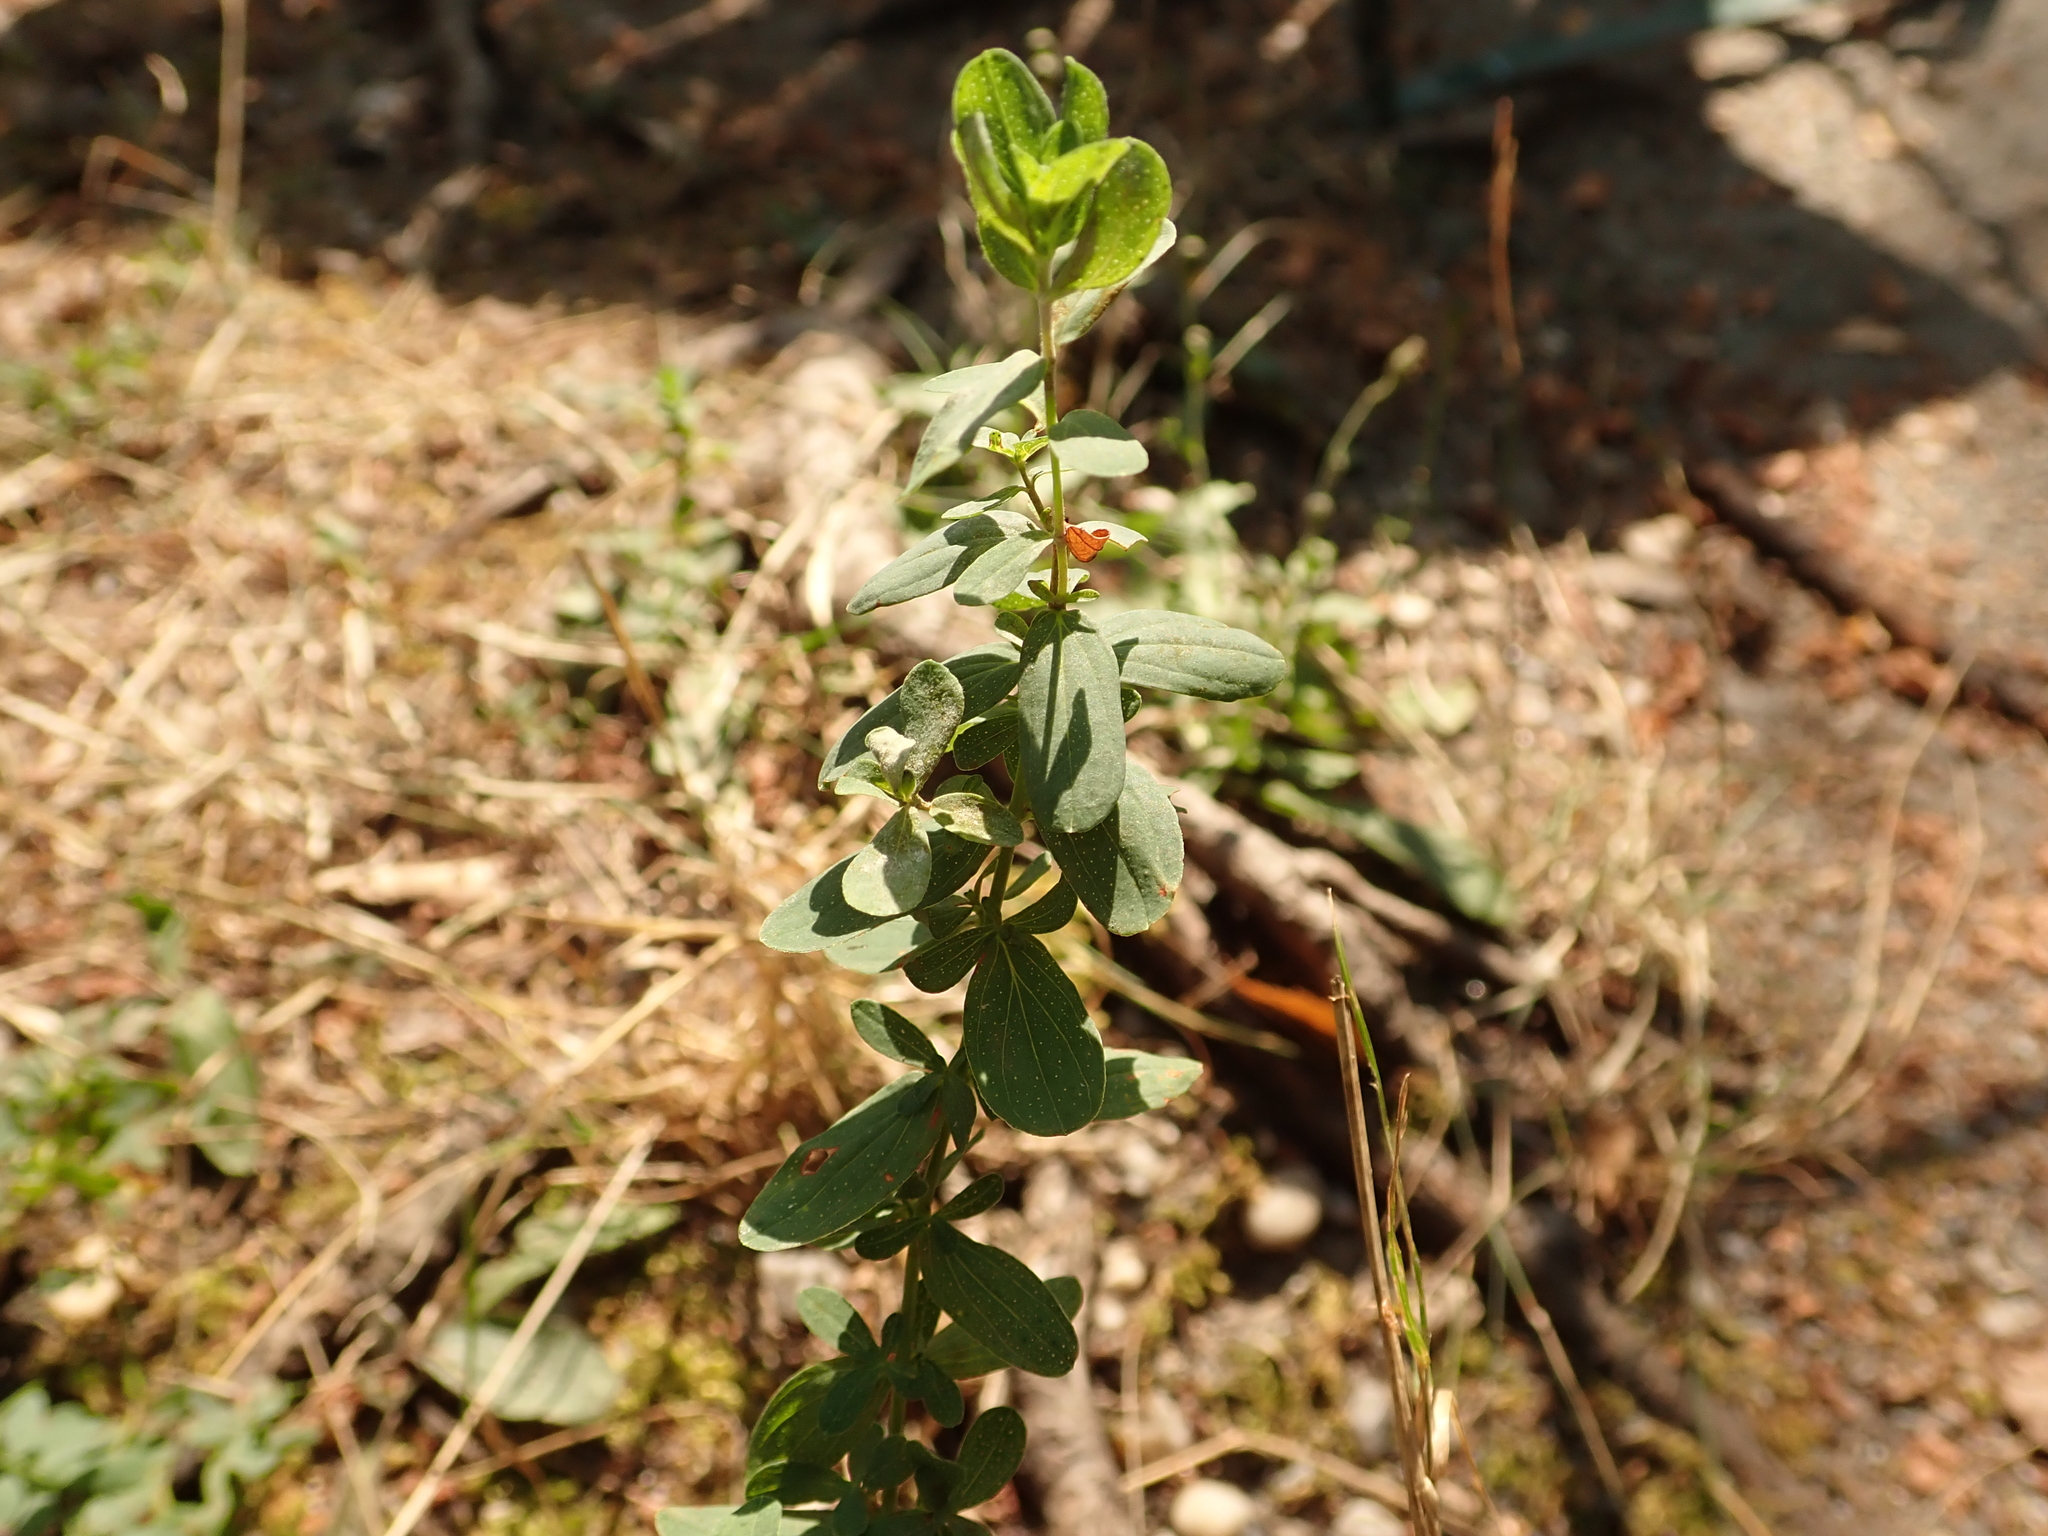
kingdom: Plantae
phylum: Tracheophyta
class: Magnoliopsida
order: Malpighiales
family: Hypericaceae
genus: Hypericum
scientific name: Hypericum perforatum
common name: Common st. johnswort
